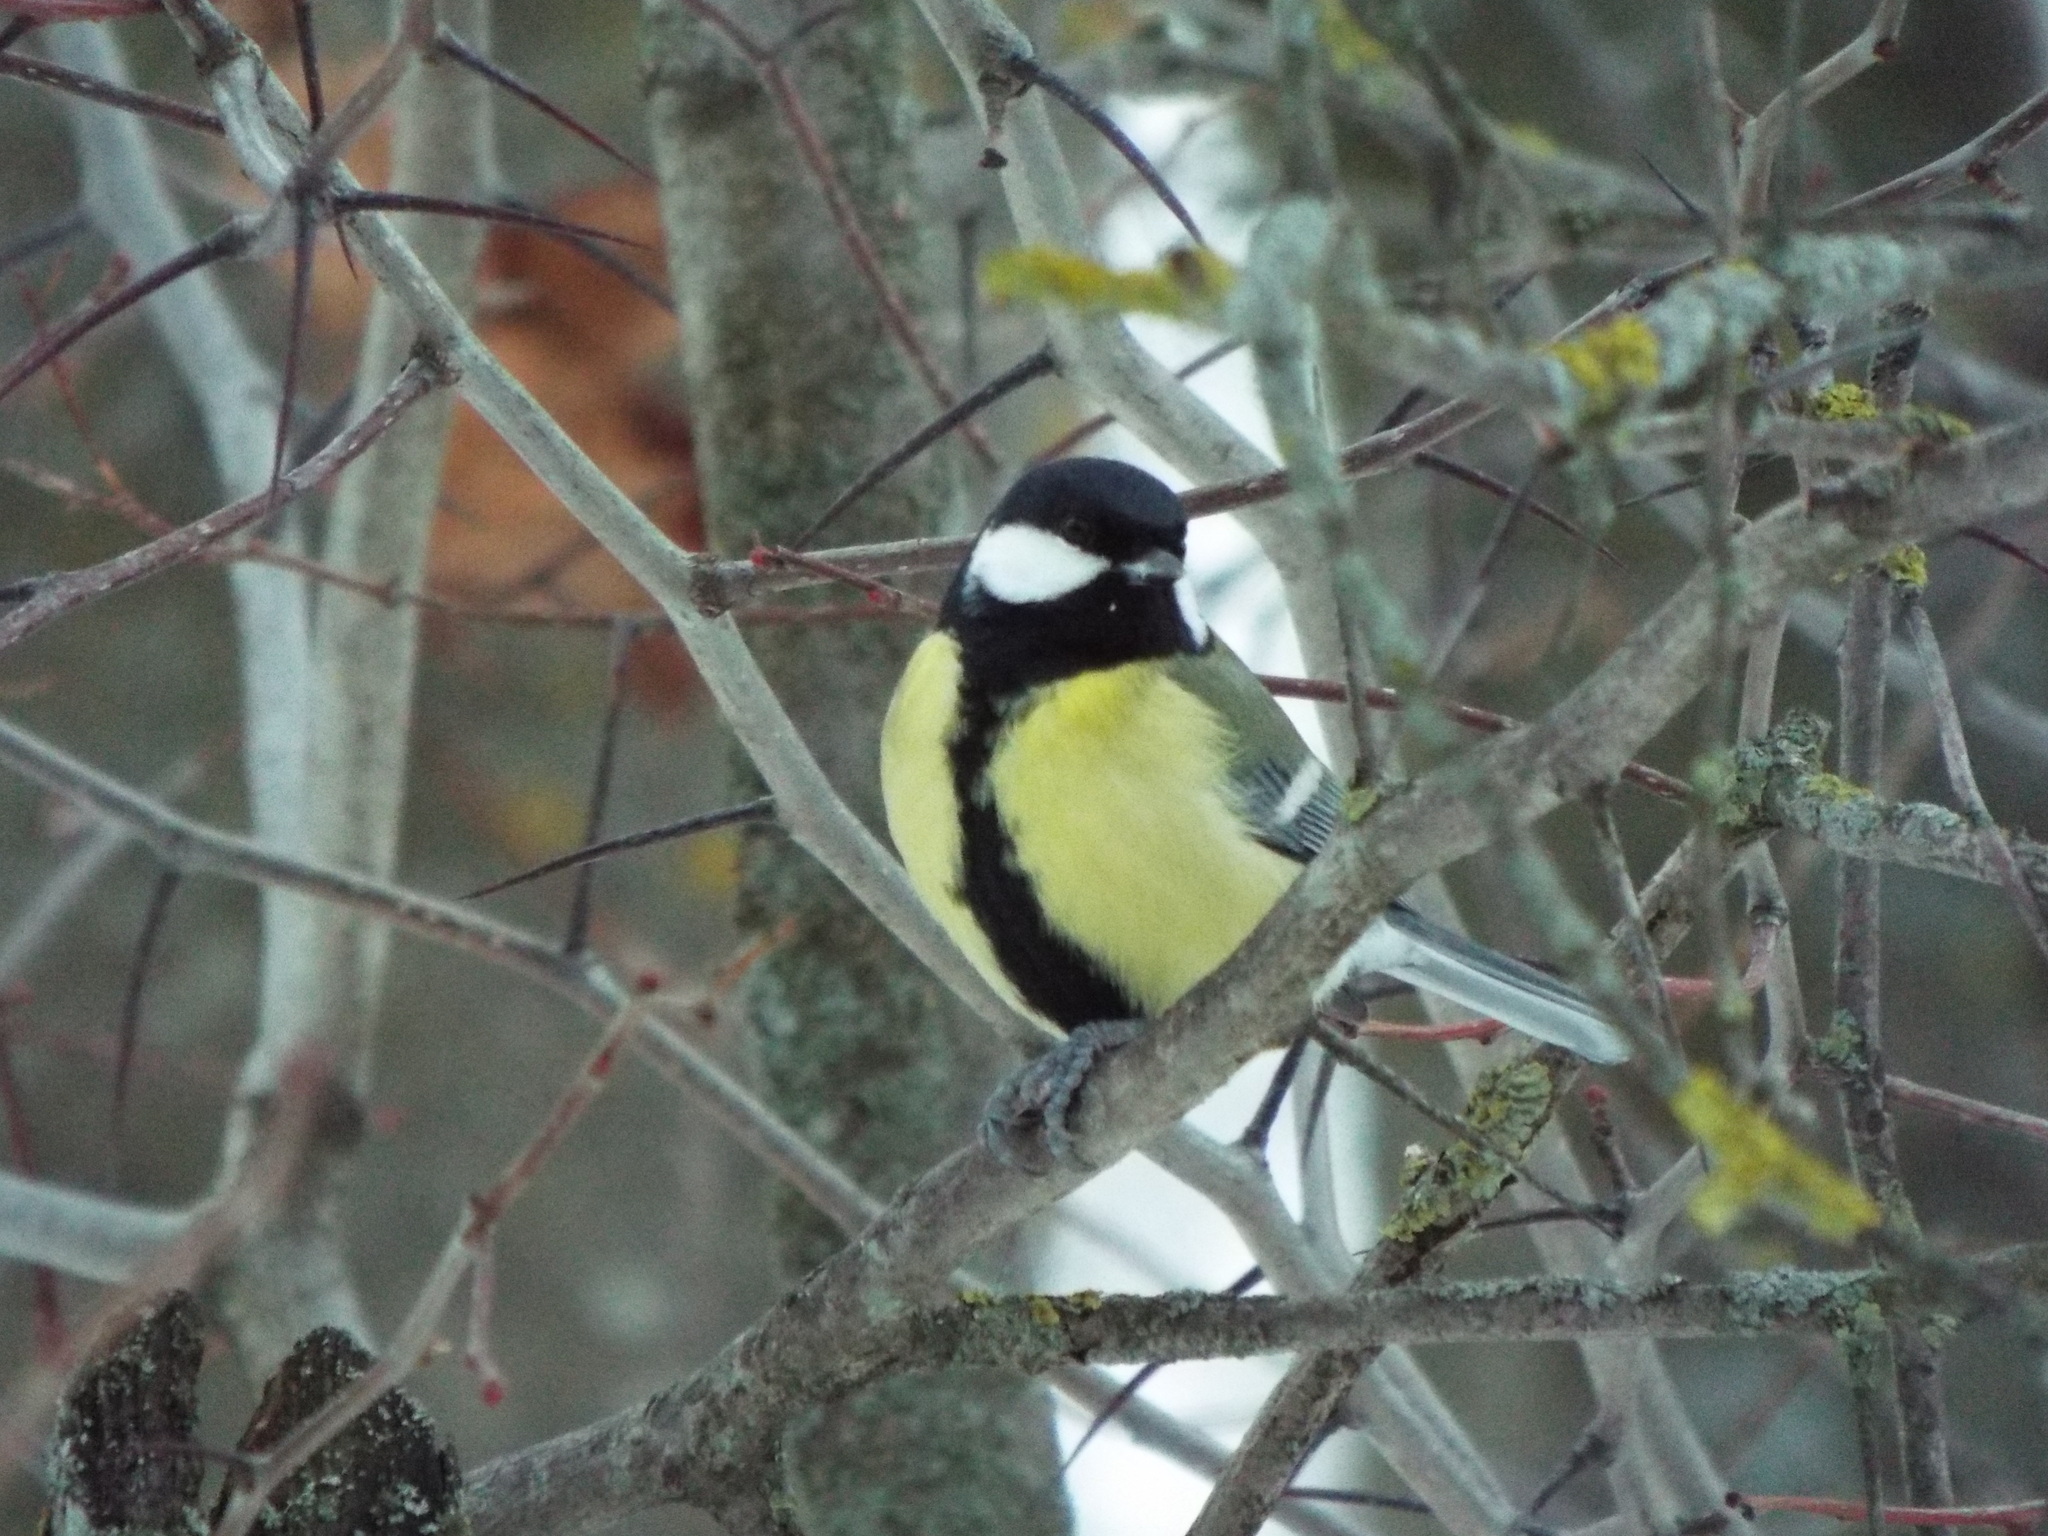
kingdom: Animalia
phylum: Chordata
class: Aves
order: Passeriformes
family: Paridae
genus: Parus
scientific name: Parus major
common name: Great tit
